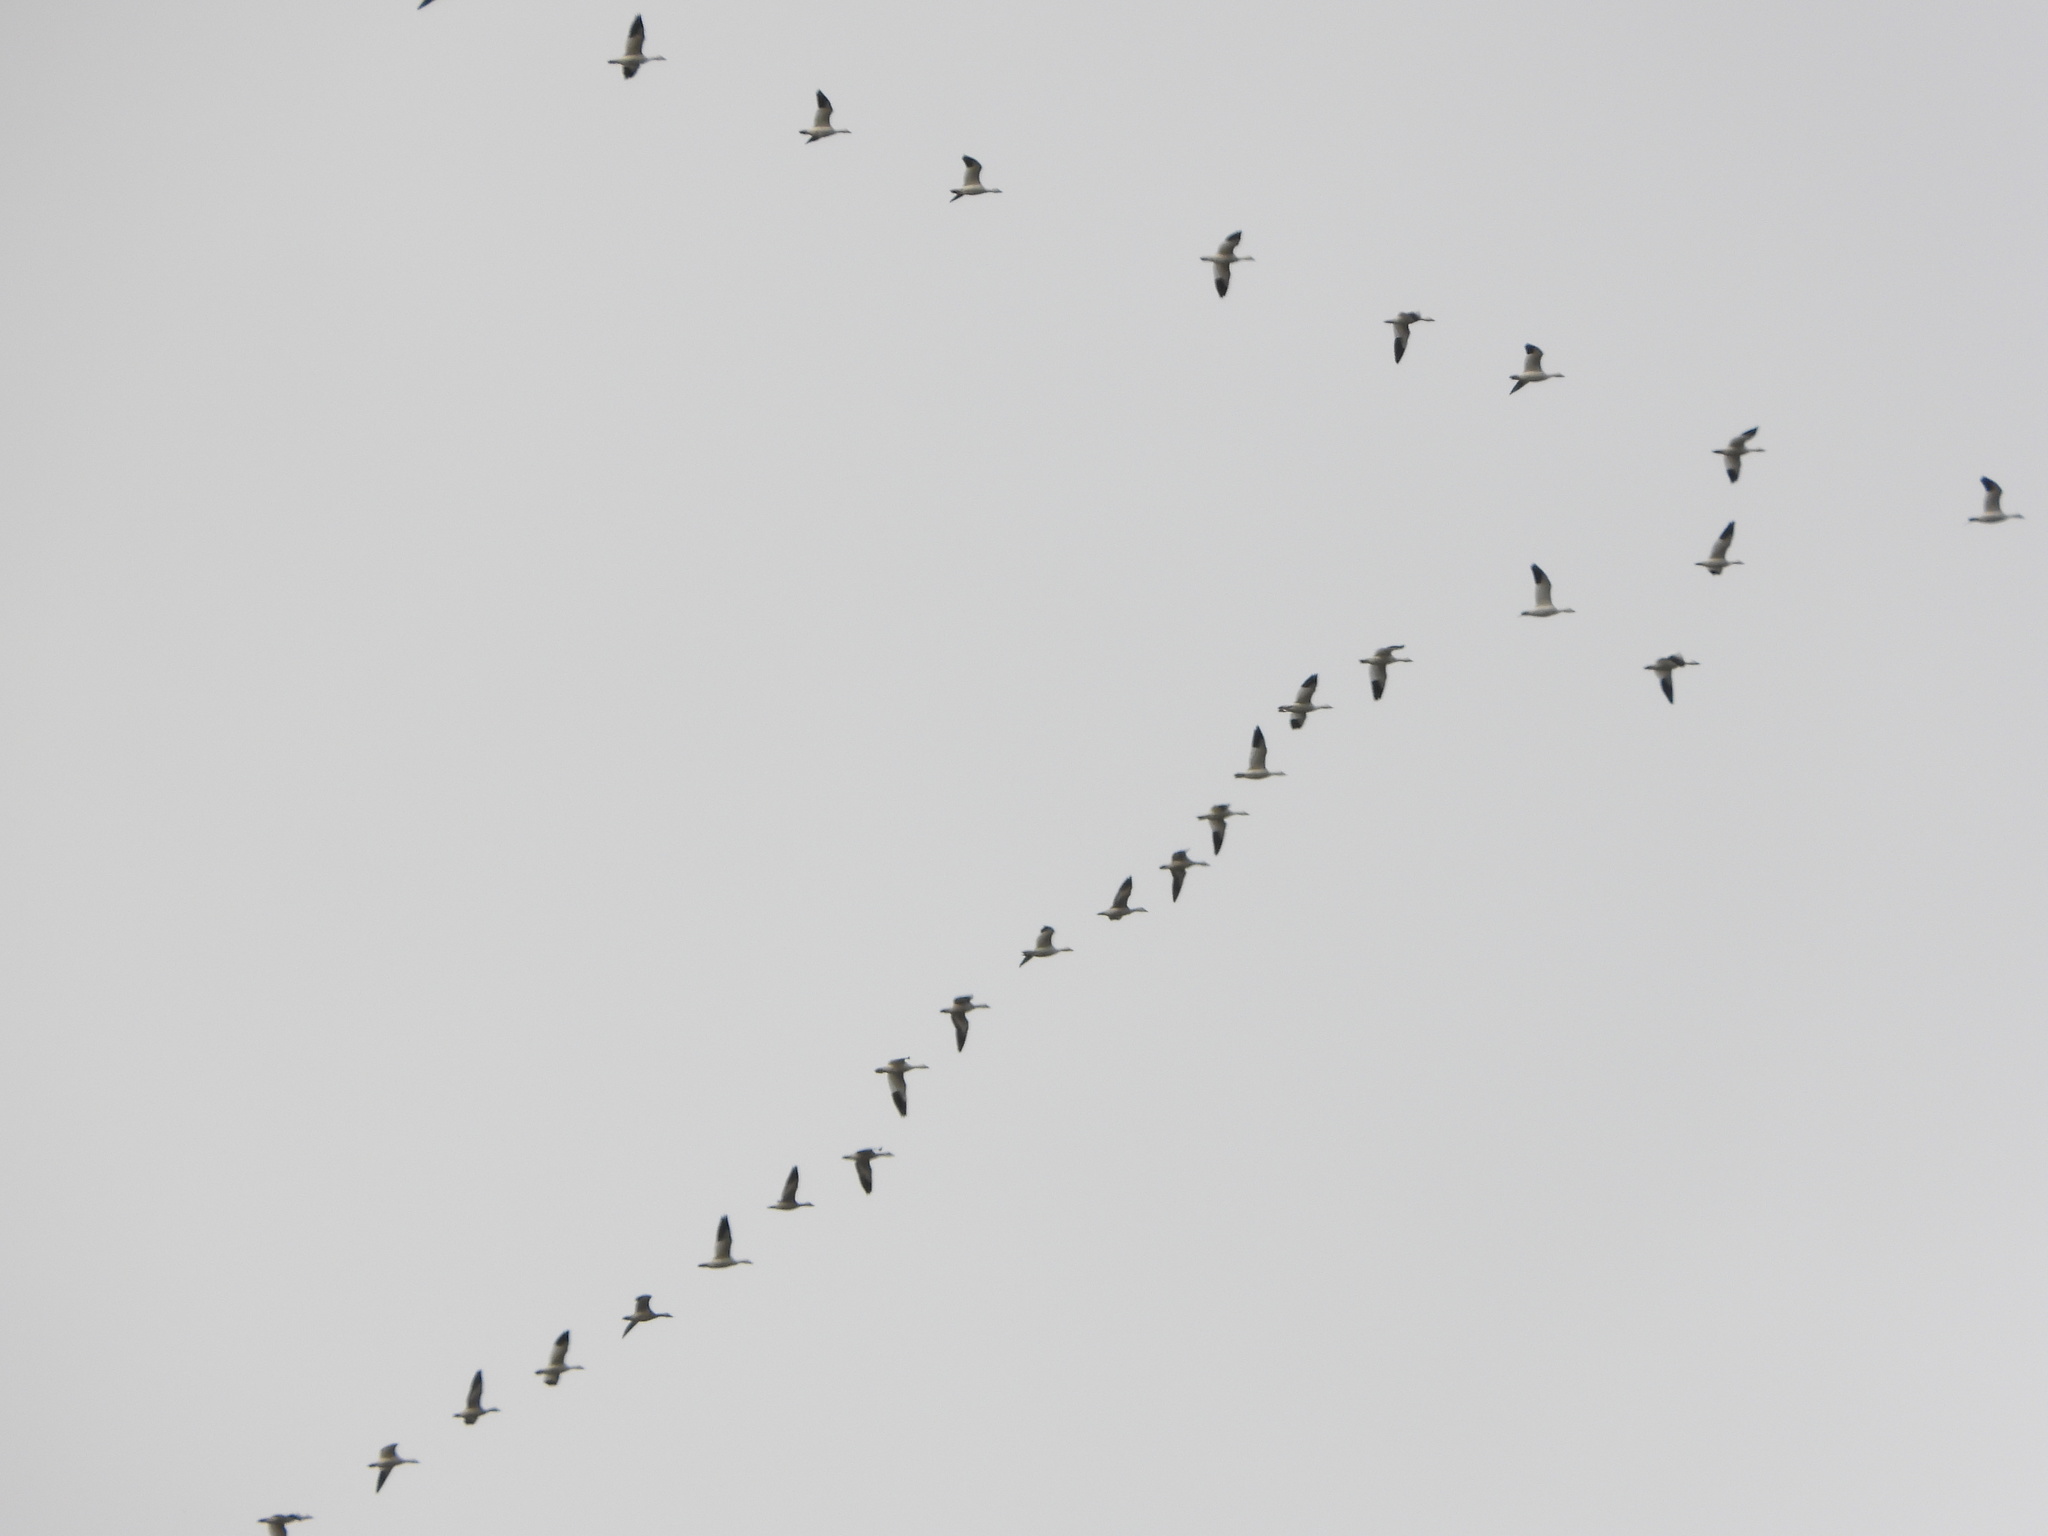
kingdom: Animalia
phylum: Chordata
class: Aves
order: Anseriformes
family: Anatidae
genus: Anser
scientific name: Anser caerulescens
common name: Snow goose
